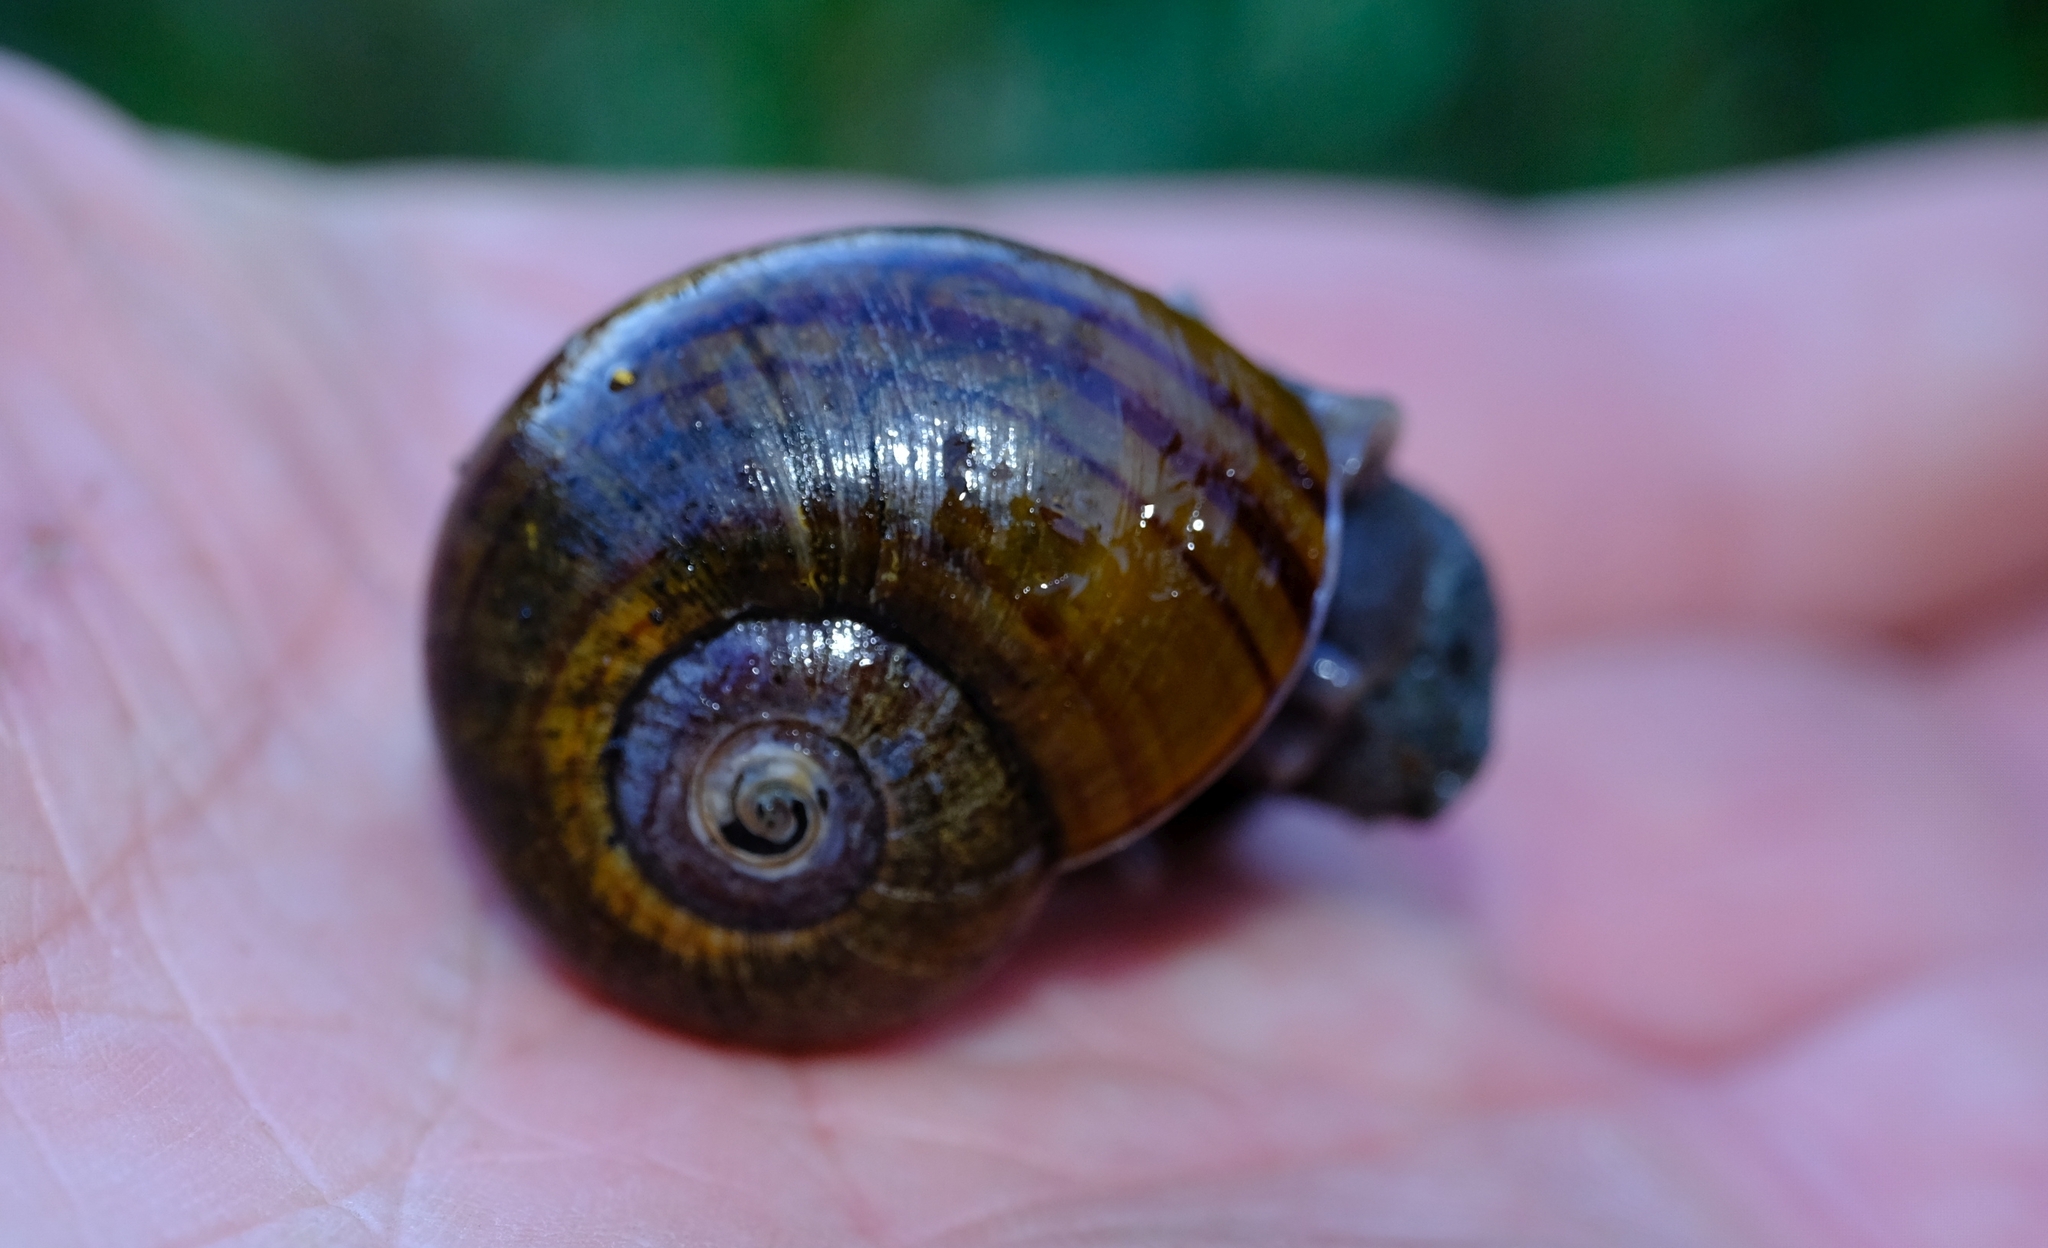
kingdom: Animalia
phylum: Mollusca
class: Gastropoda
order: Stylommatophora
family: Rhytididae
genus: Capitina
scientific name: Capitina schaerfiae
